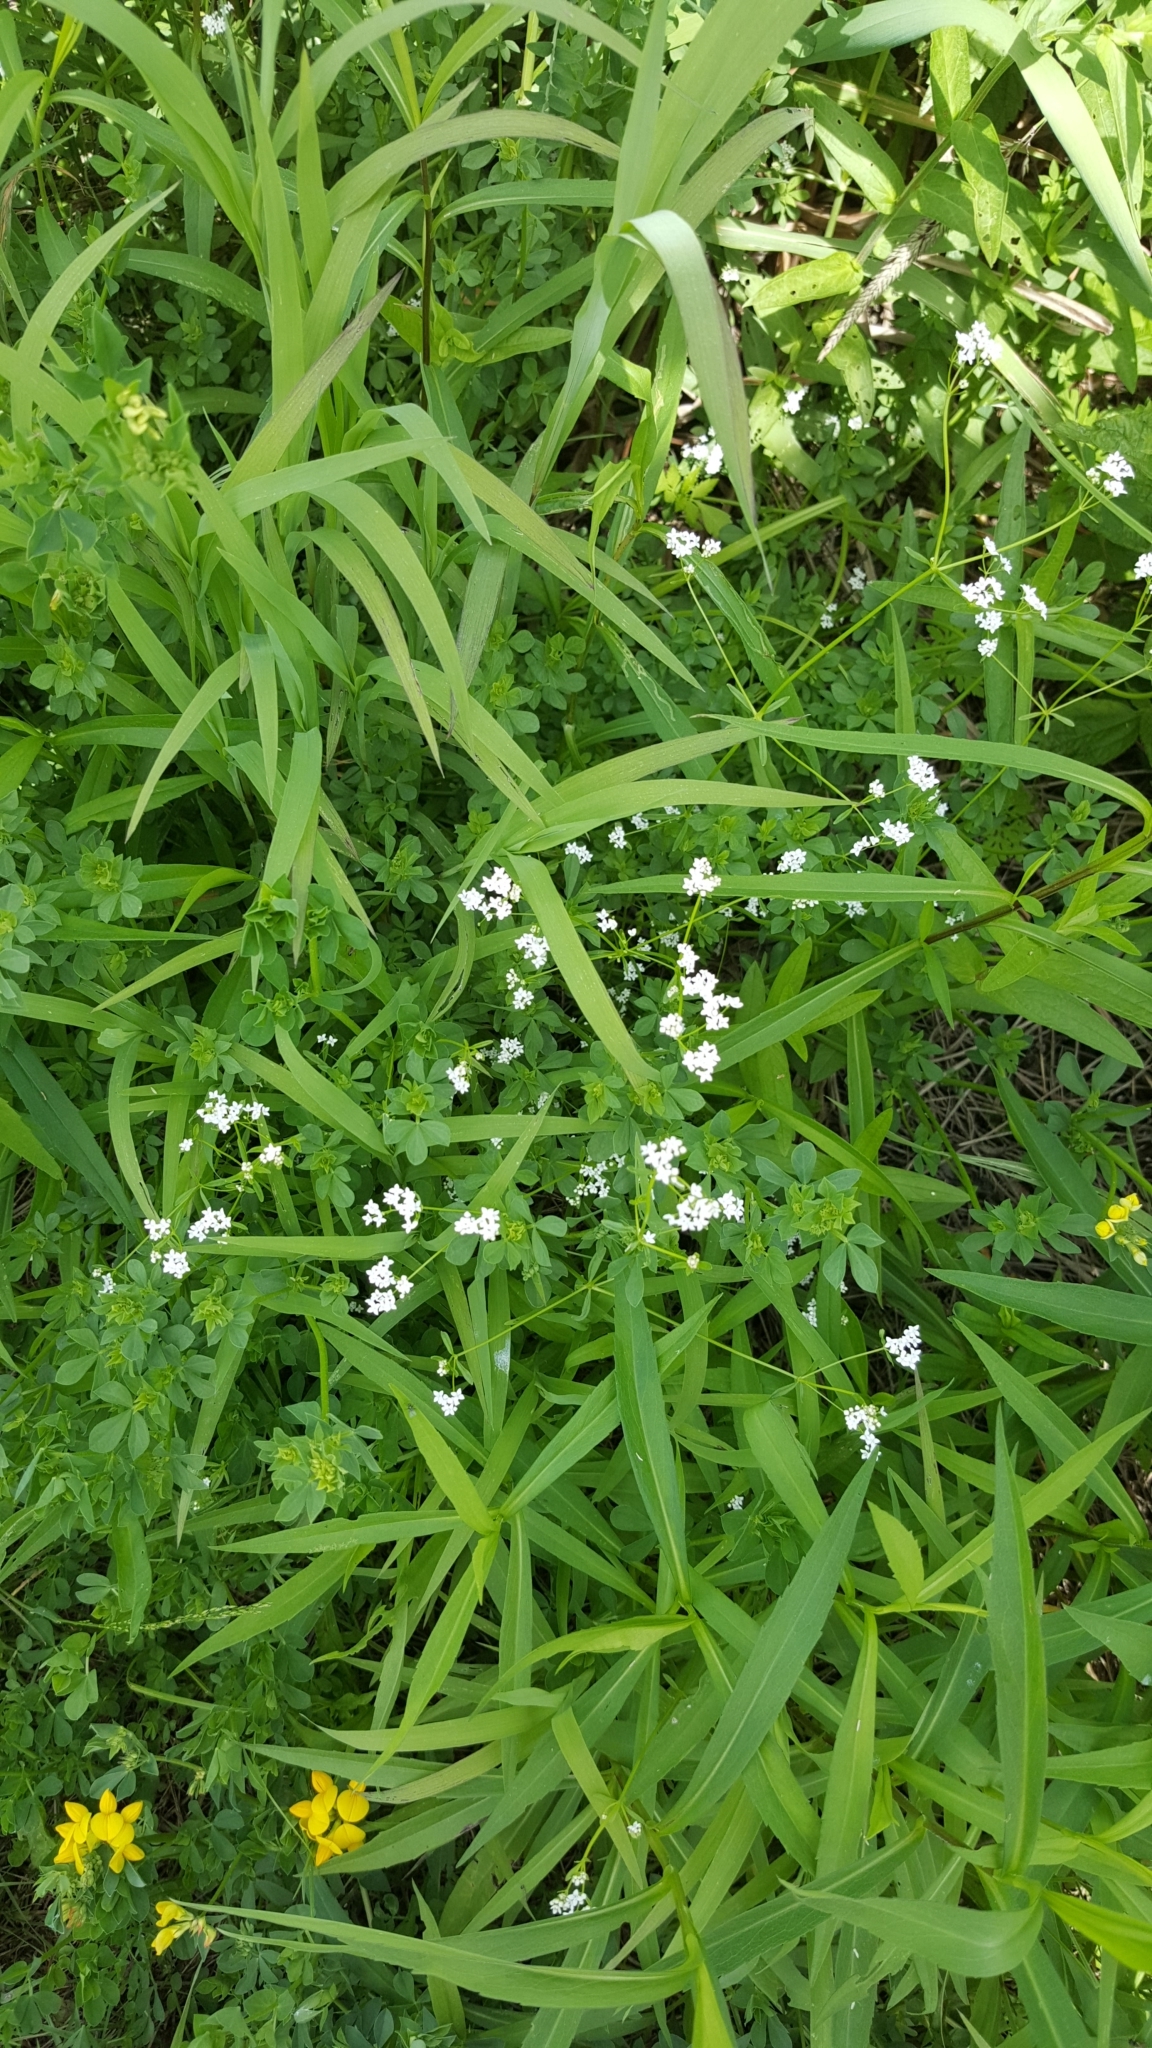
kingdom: Plantae
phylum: Tracheophyta
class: Magnoliopsida
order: Gentianales
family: Rubiaceae
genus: Galium
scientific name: Galium palustre
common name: Common marsh-bedstraw
